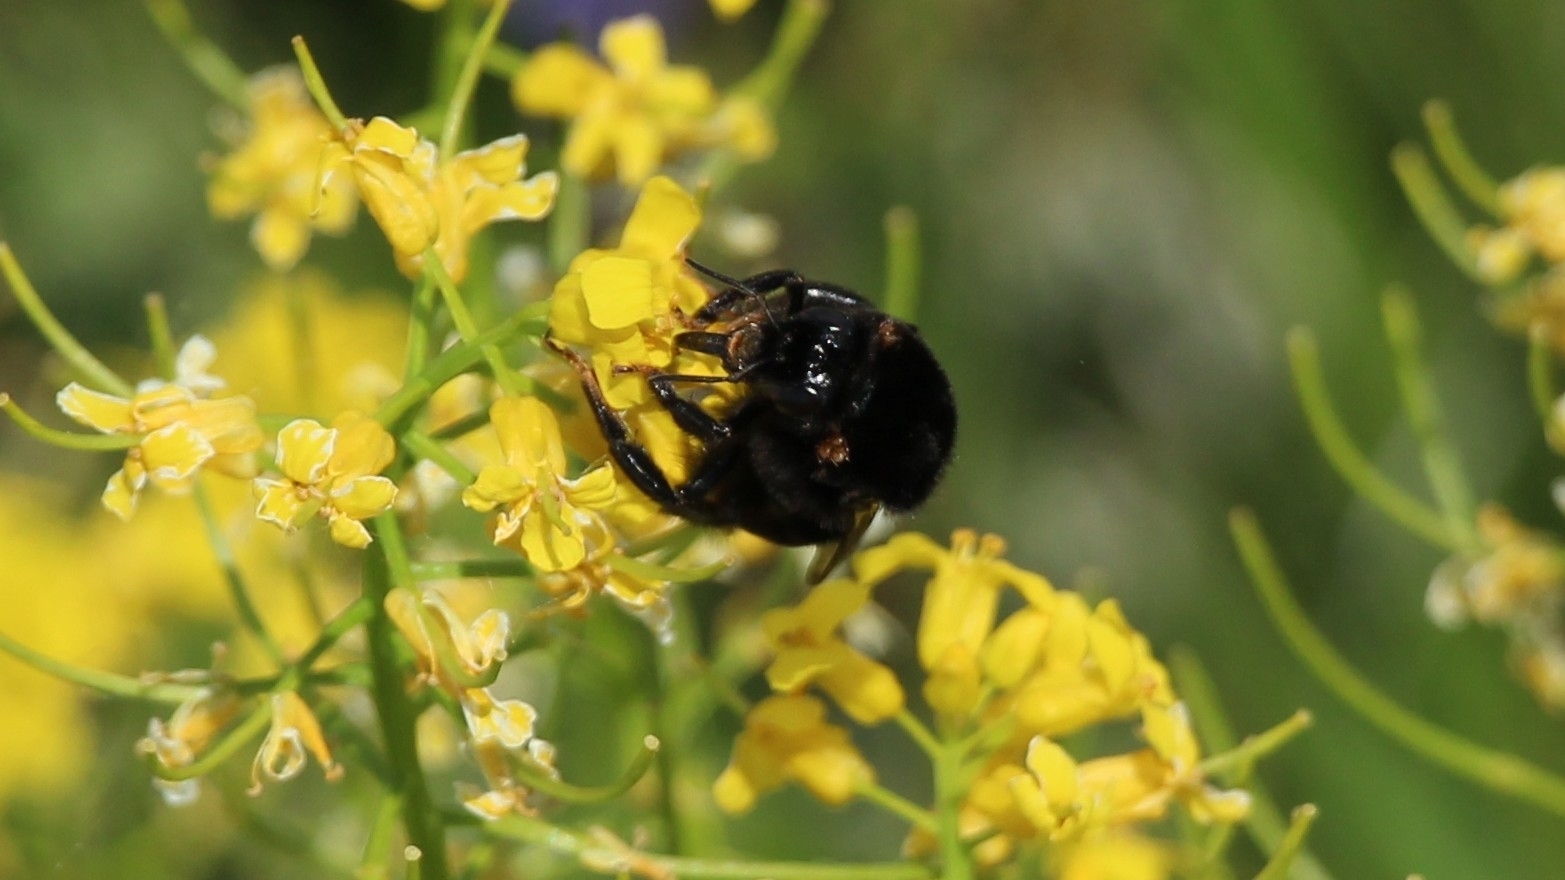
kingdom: Animalia
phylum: Arthropoda
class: Insecta
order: Hymenoptera
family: Apidae
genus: Bombus
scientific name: Bombus lapidarius
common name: Large red-tailed humble-bee
